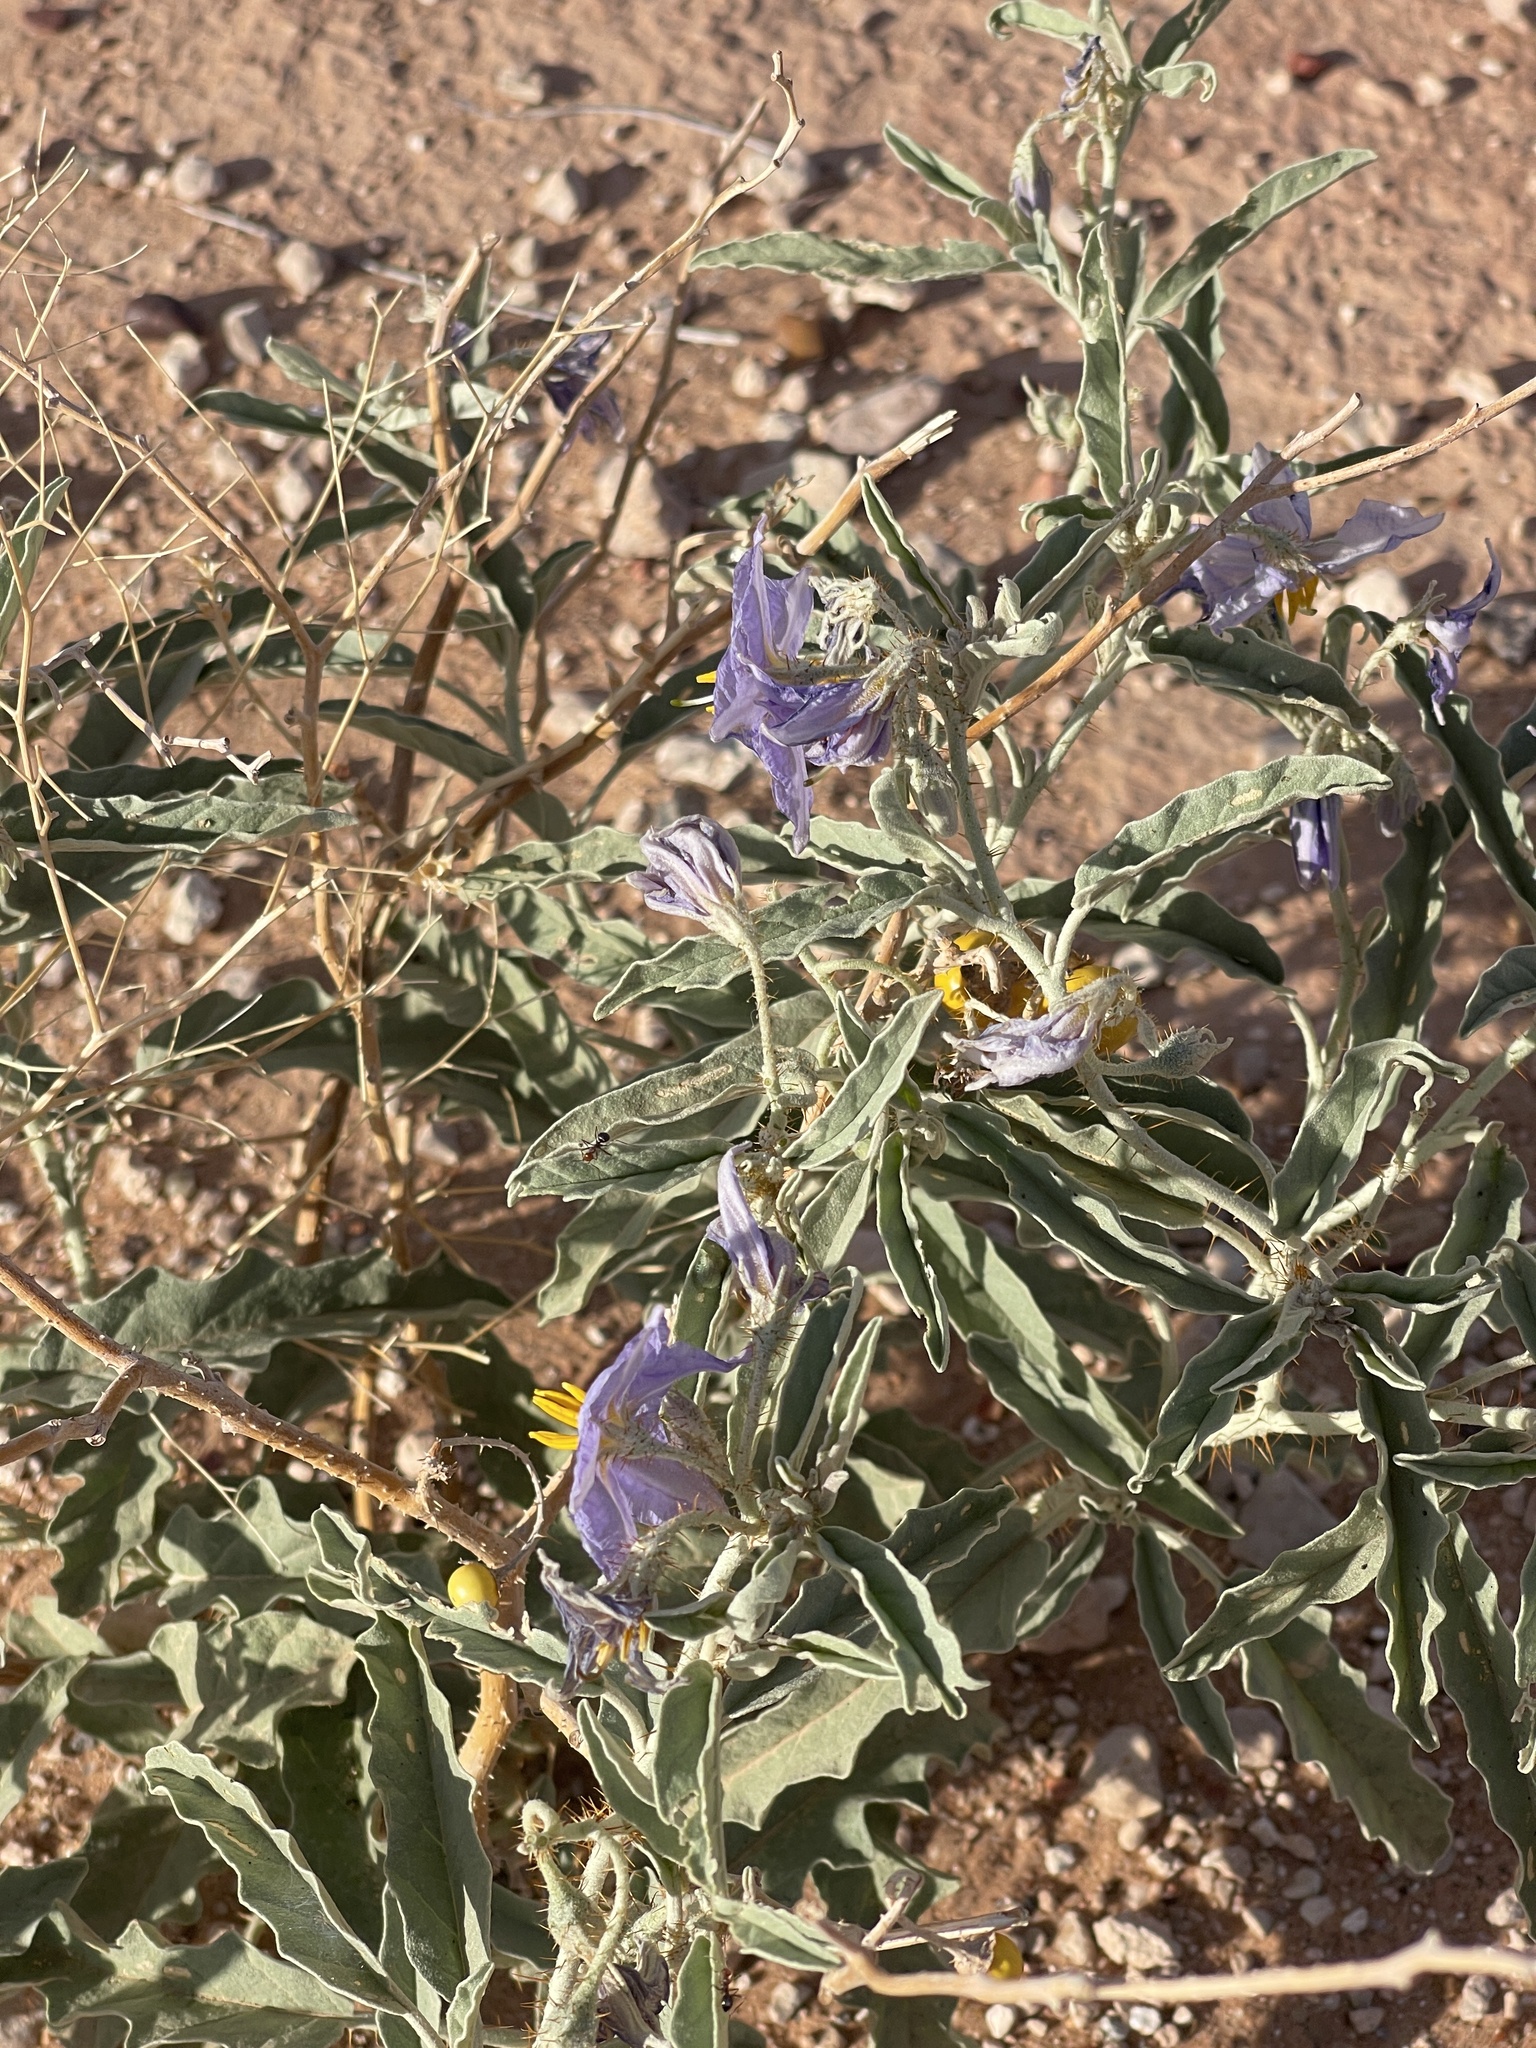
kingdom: Plantae
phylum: Tracheophyta
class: Magnoliopsida
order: Solanales
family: Solanaceae
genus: Solanum
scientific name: Solanum elaeagnifolium
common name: Silverleaf nightshade
